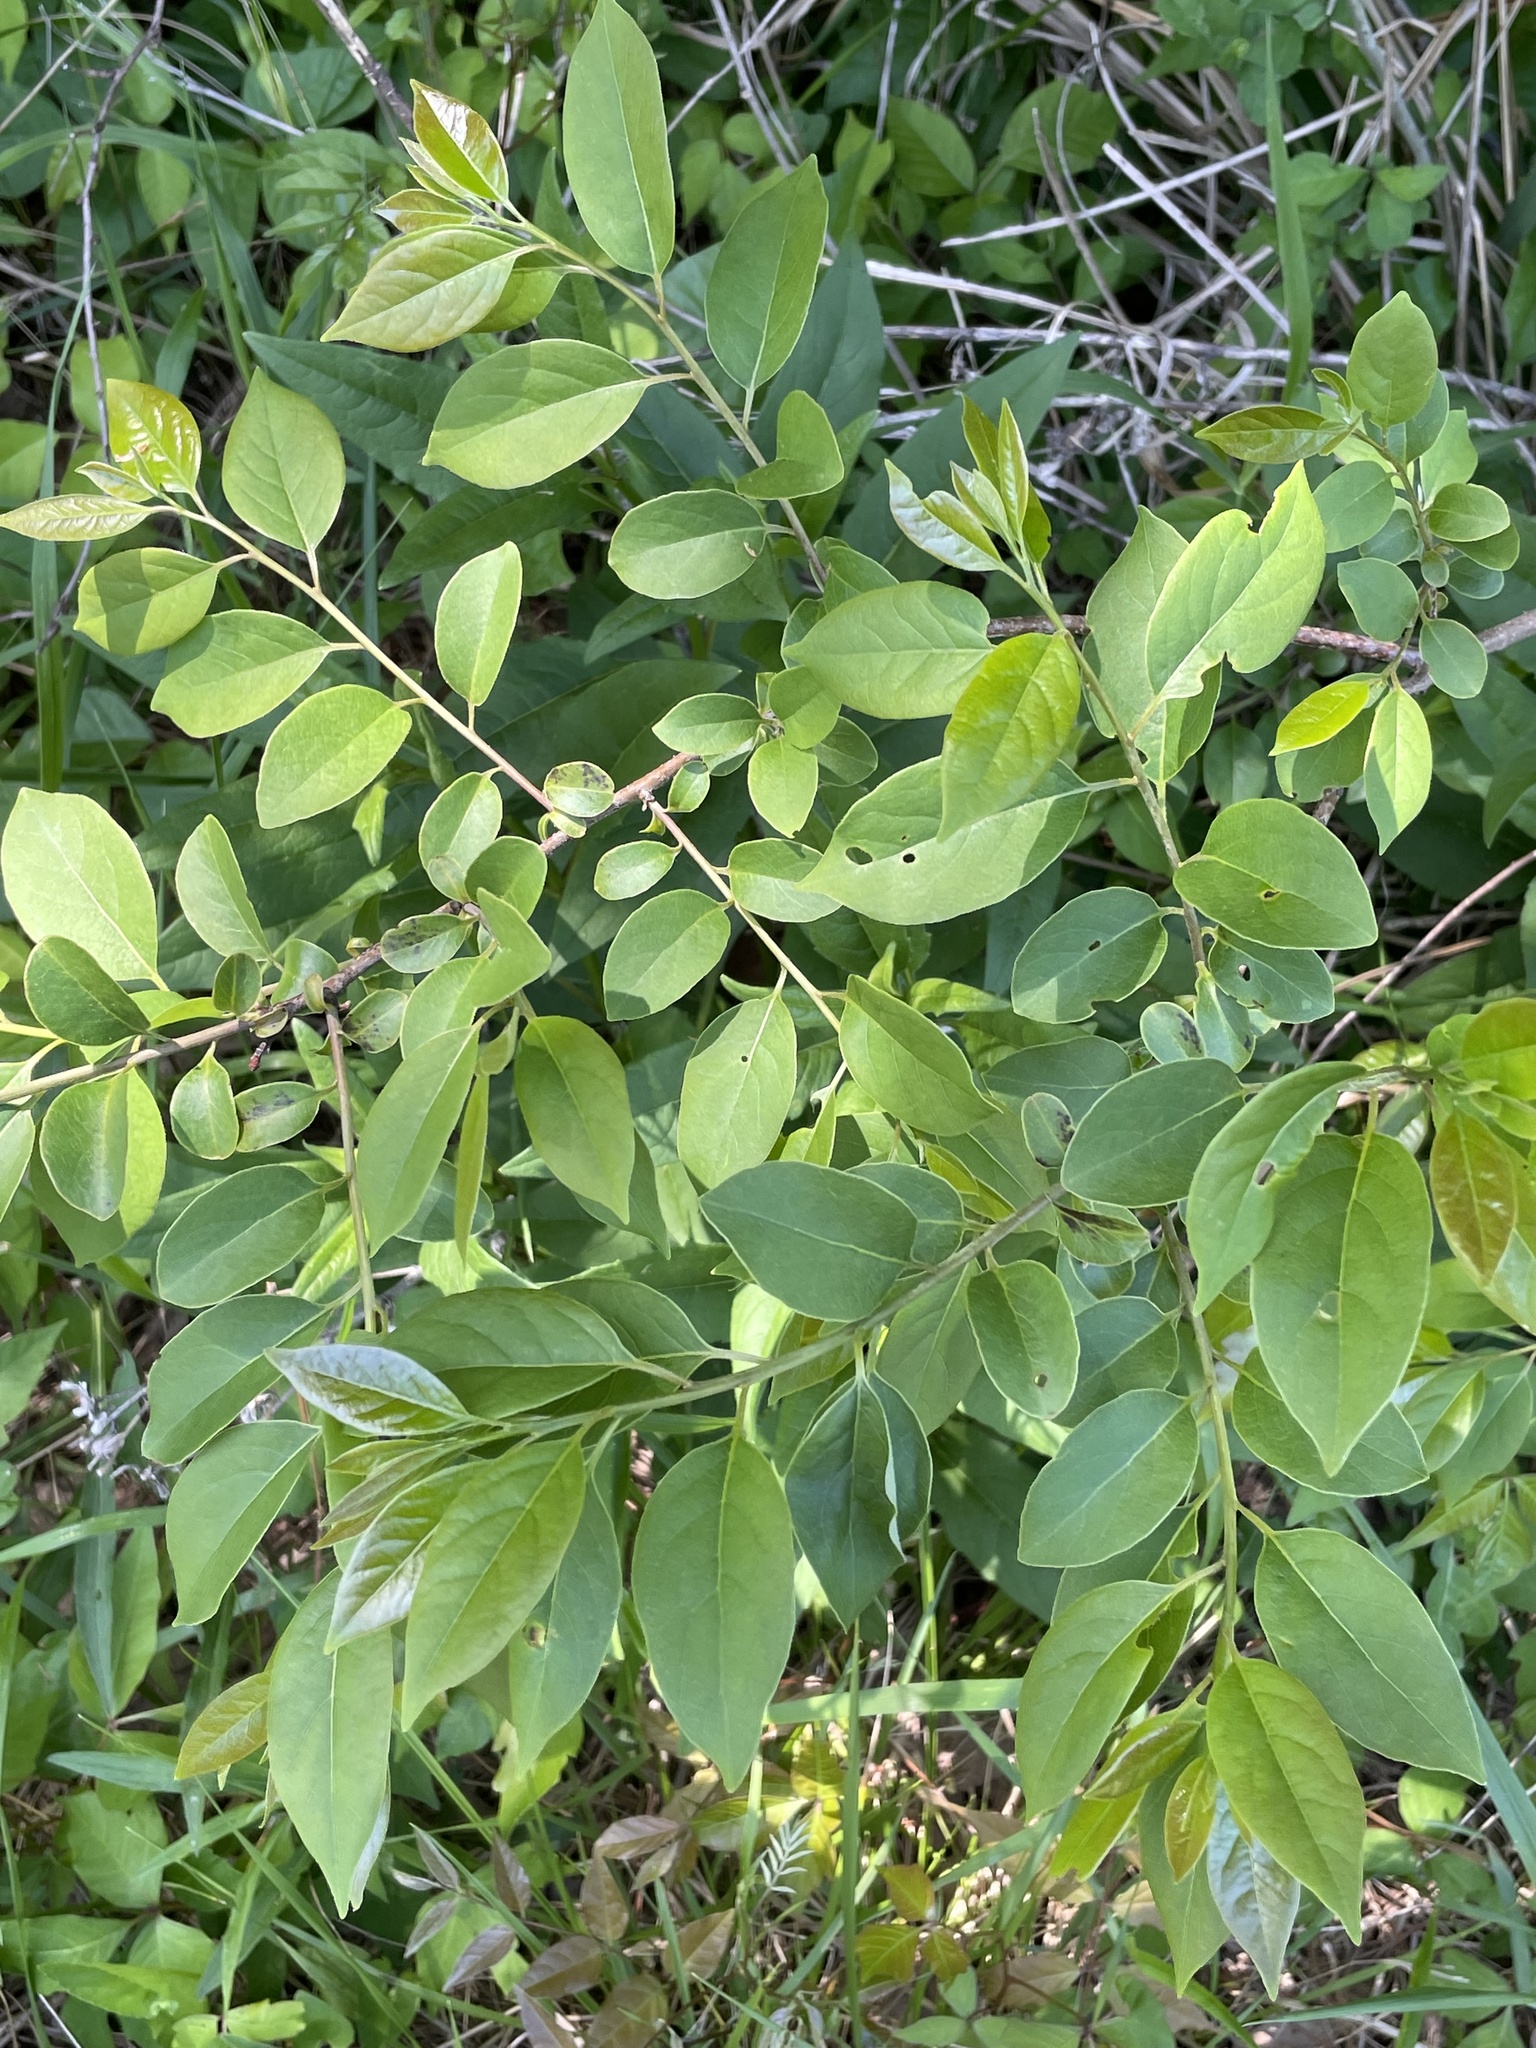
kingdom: Plantae
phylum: Tracheophyta
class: Magnoliopsida
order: Ericales
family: Ebenaceae
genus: Diospyros
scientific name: Diospyros virginiana
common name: Persimmon
